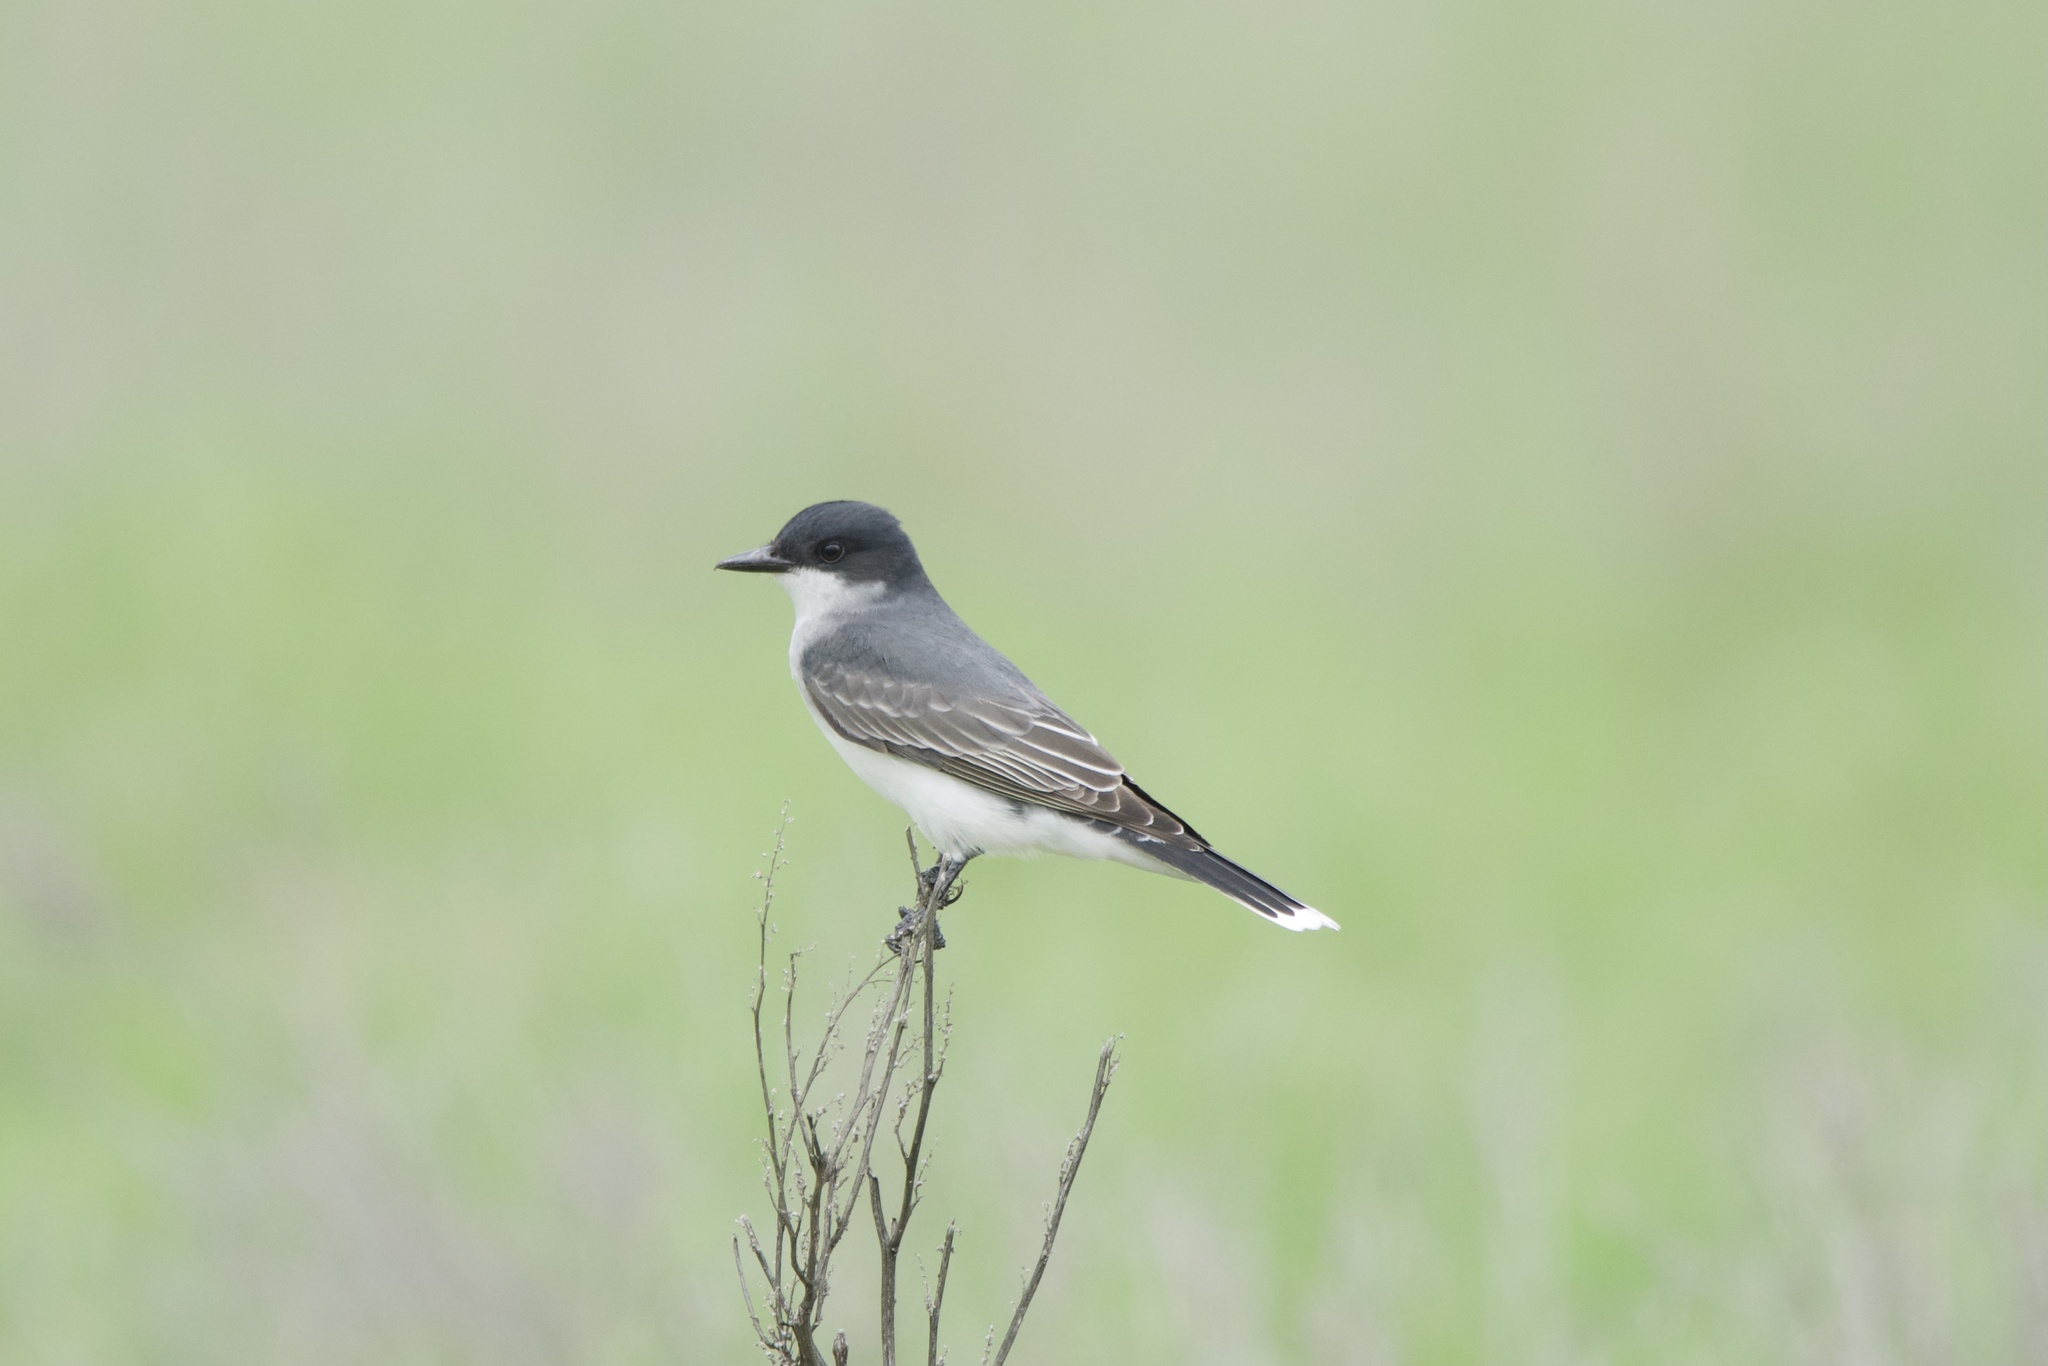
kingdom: Animalia
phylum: Chordata
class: Aves
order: Passeriformes
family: Tyrannidae
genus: Tyrannus
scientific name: Tyrannus tyrannus
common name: Eastern kingbird
